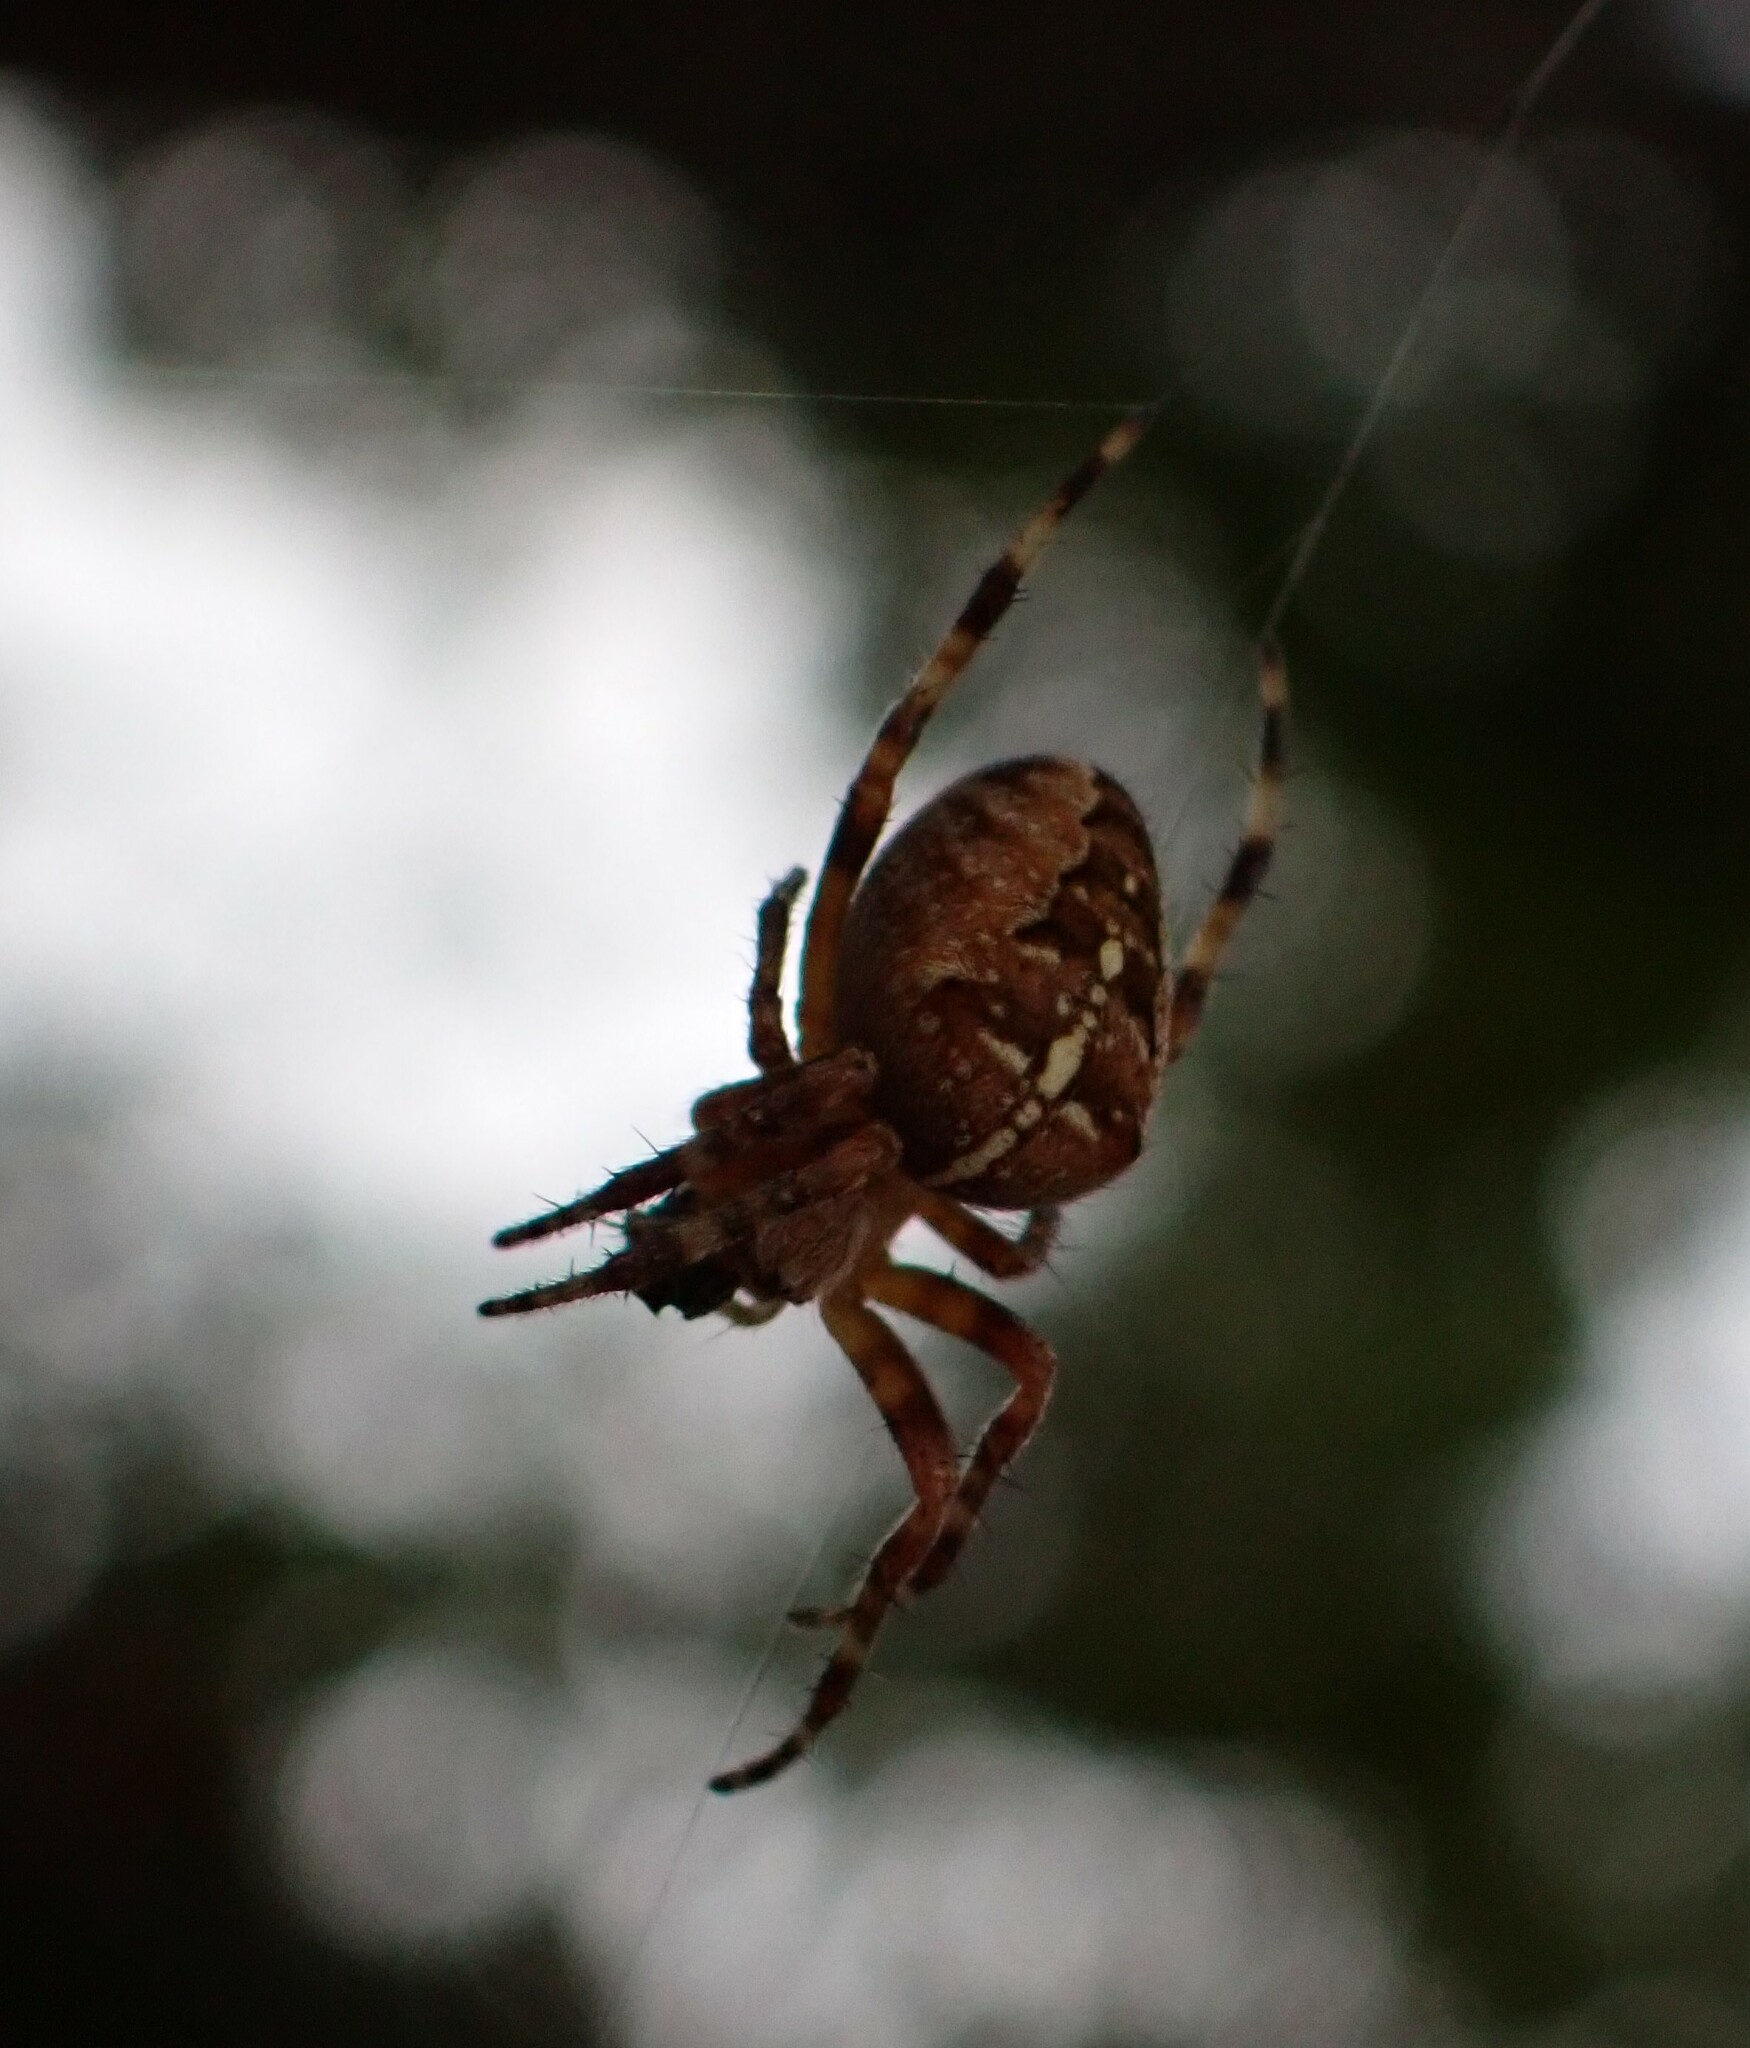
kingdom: Animalia
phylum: Arthropoda
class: Arachnida
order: Araneae
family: Araneidae
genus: Araneus
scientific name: Araneus diadematus
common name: Cross orbweaver
